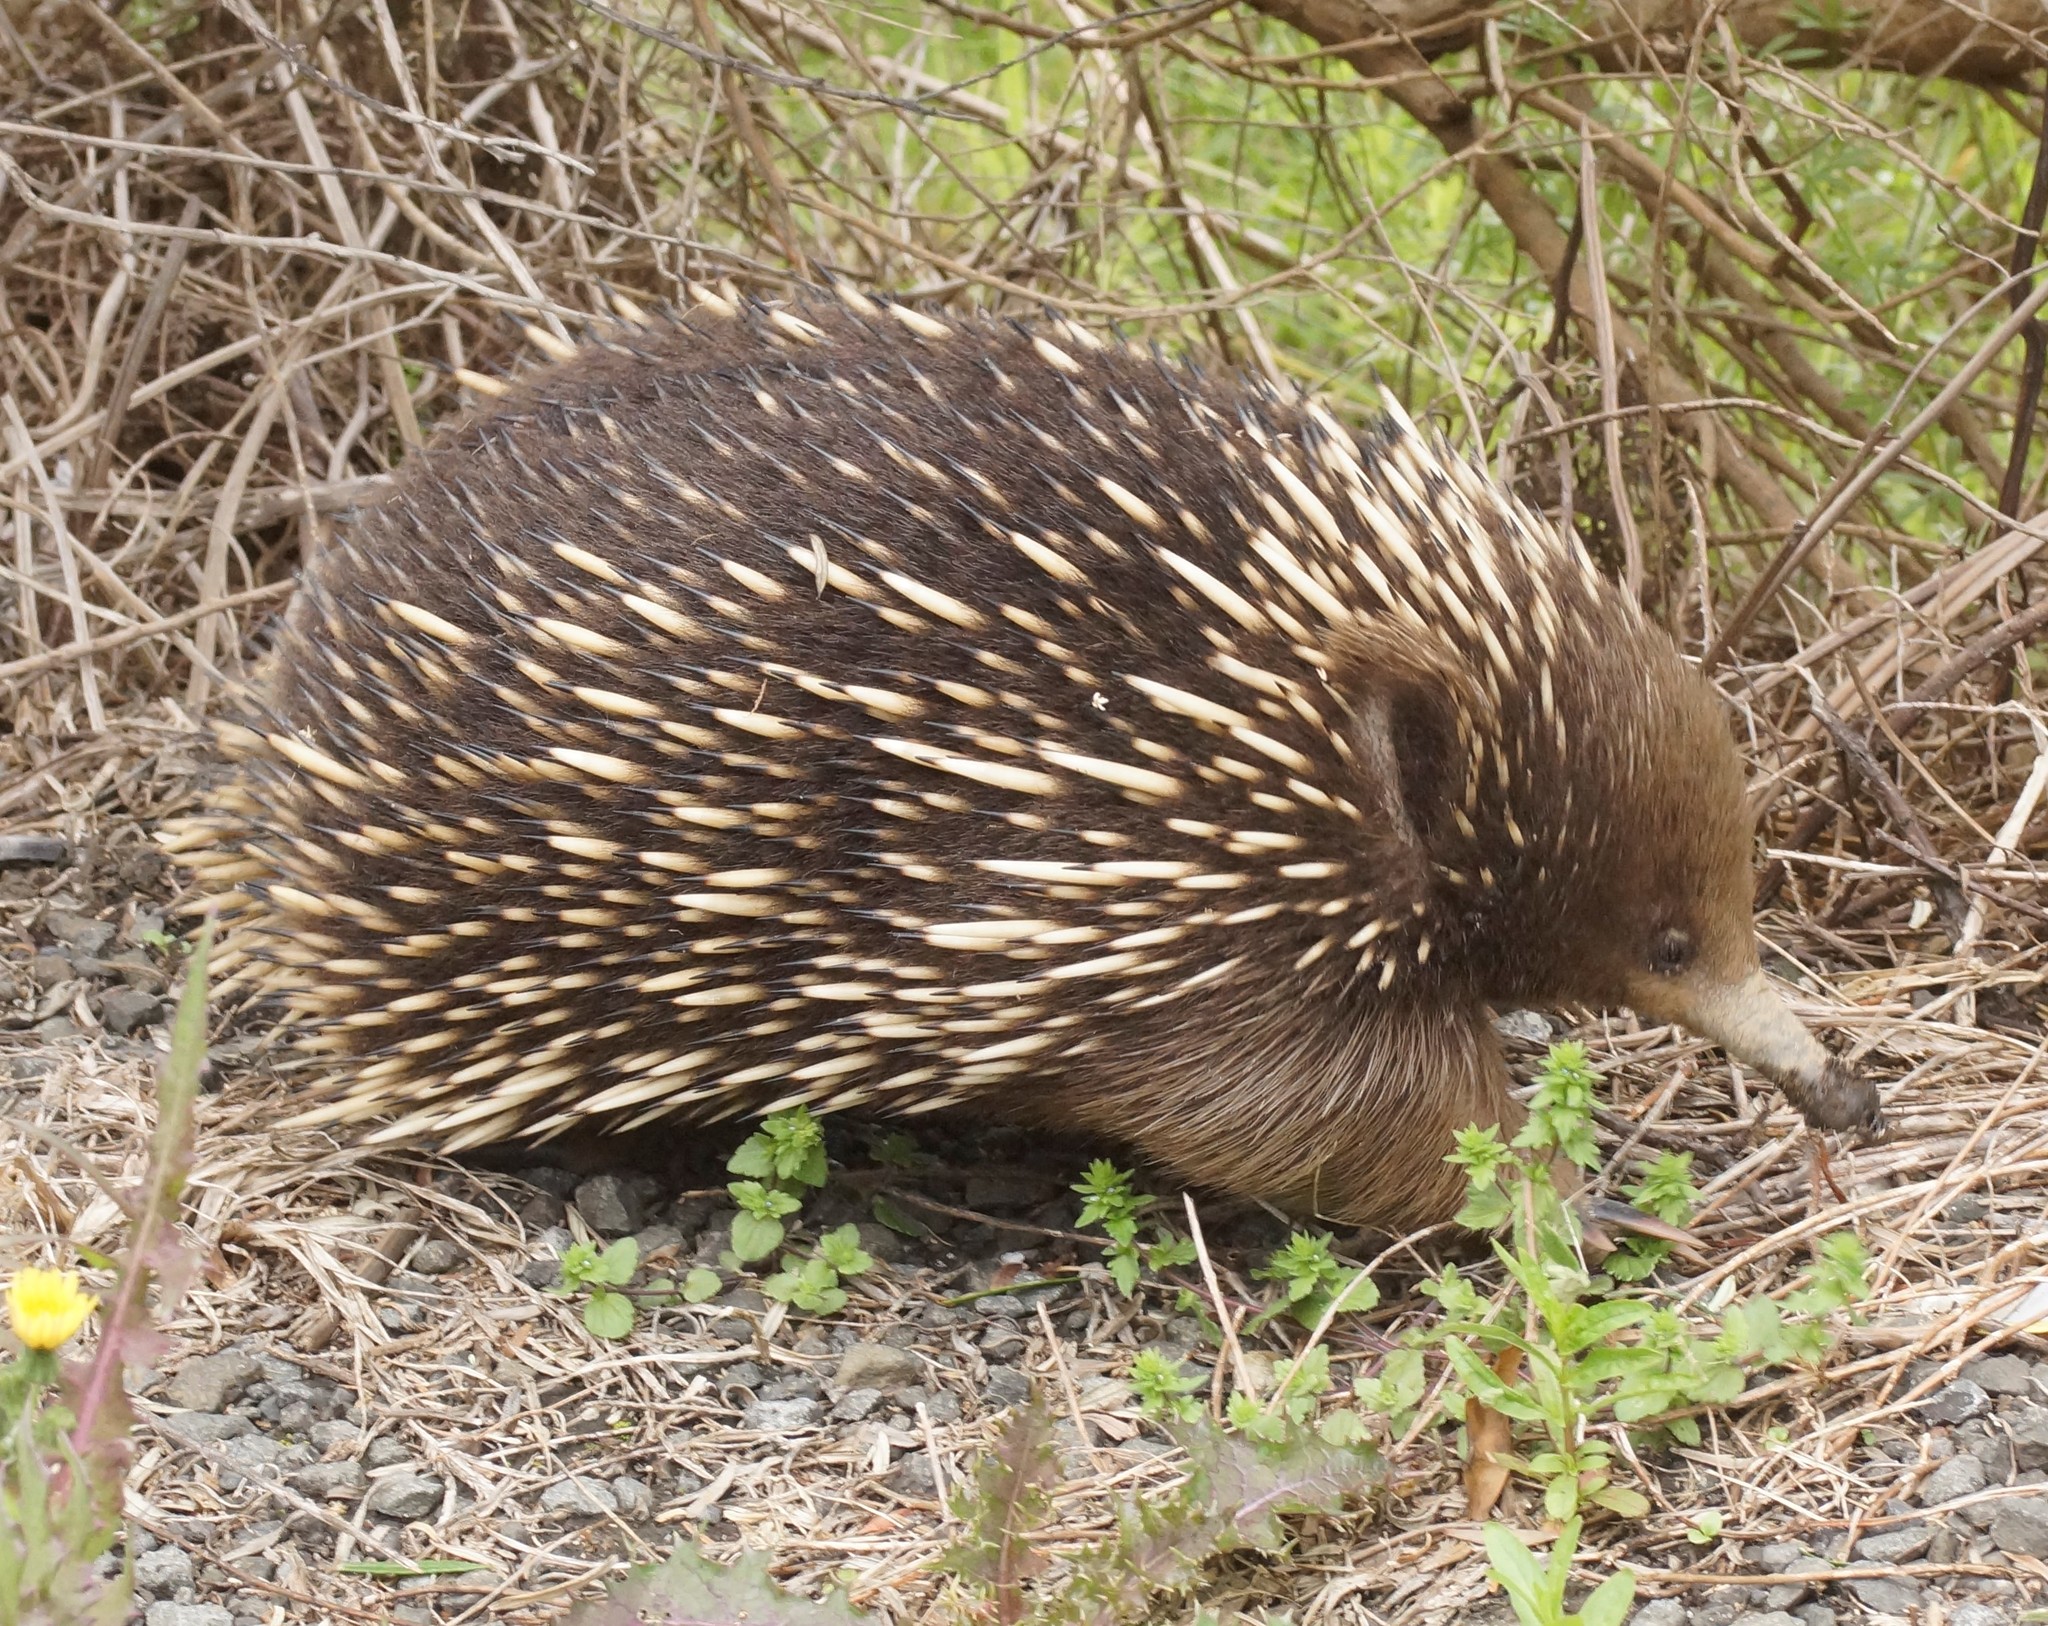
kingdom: Animalia
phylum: Chordata
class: Mammalia
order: Monotremata
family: Tachyglossidae
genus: Tachyglossus
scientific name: Tachyglossus aculeatus
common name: Short-beaked echidna
